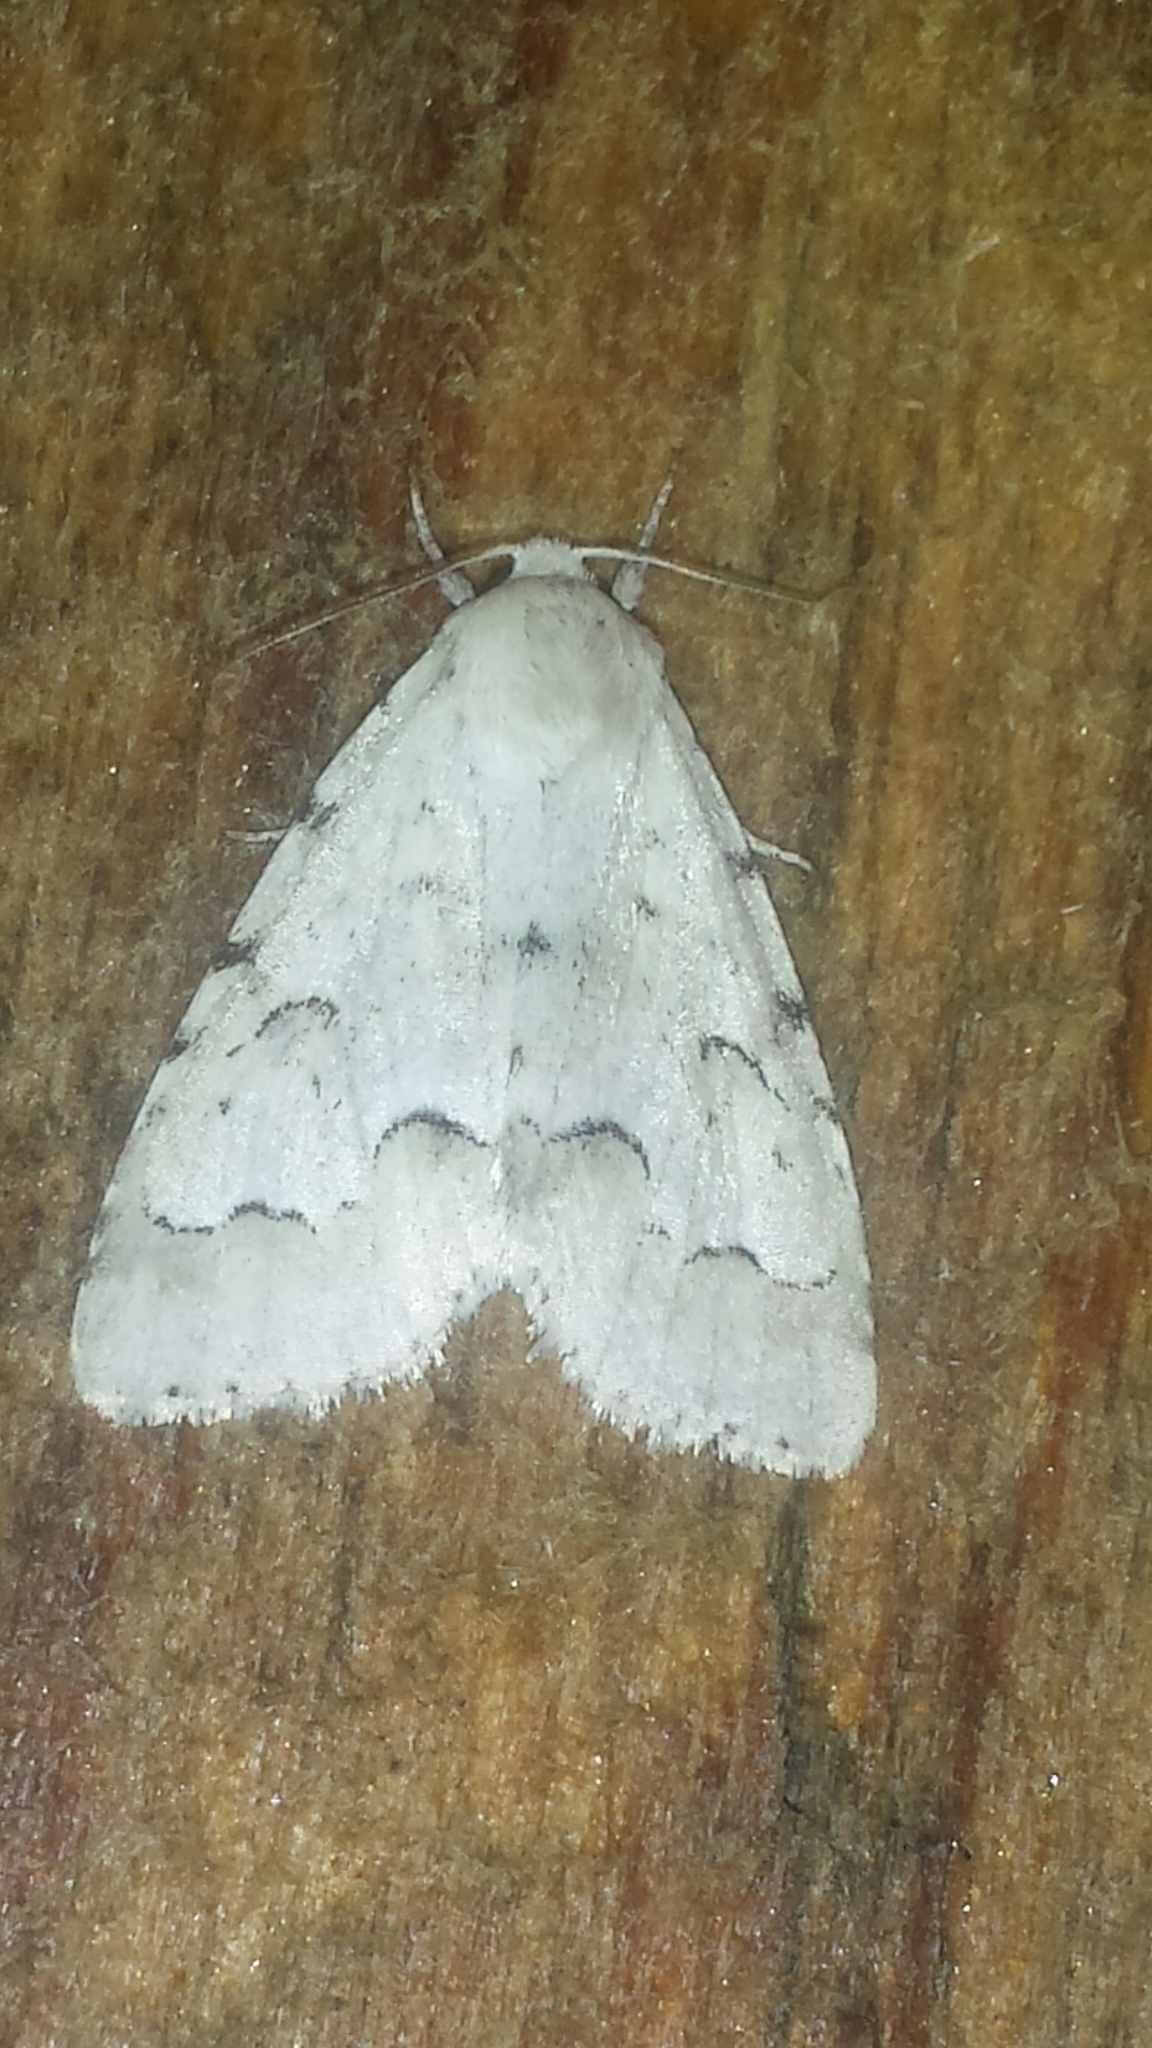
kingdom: Animalia
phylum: Arthropoda
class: Insecta
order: Lepidoptera
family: Noctuidae
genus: Acronicta
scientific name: Acronicta innotata
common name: Unmarked dagger
